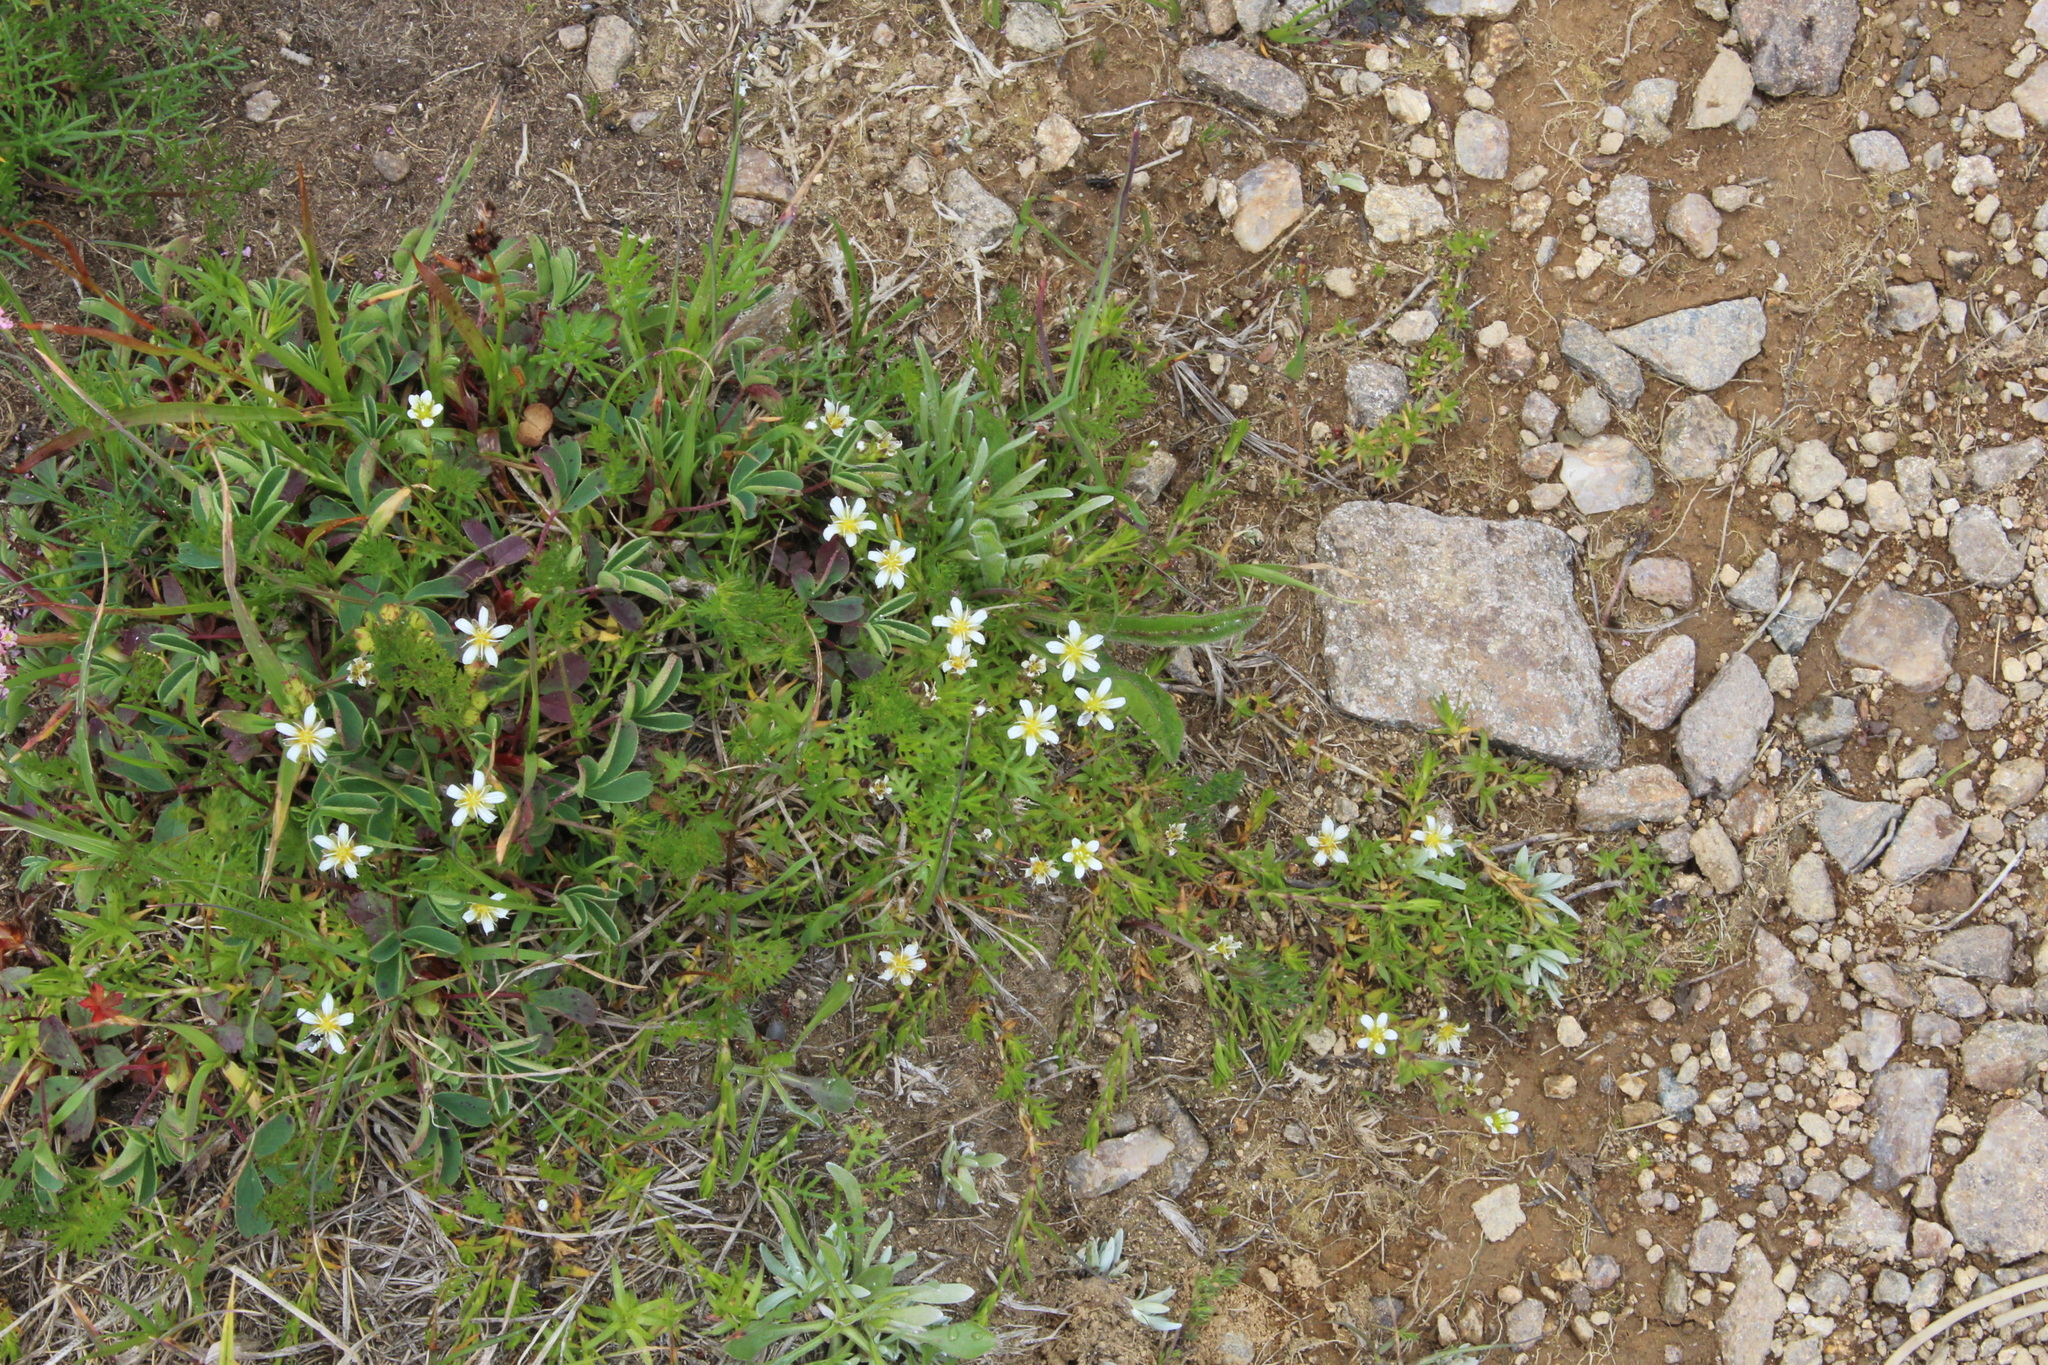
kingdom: Plantae
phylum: Tracheophyta
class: Magnoliopsida
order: Caryophyllales
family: Caryophyllaceae
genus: Pseudocherleria
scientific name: Pseudocherleria aizoides
